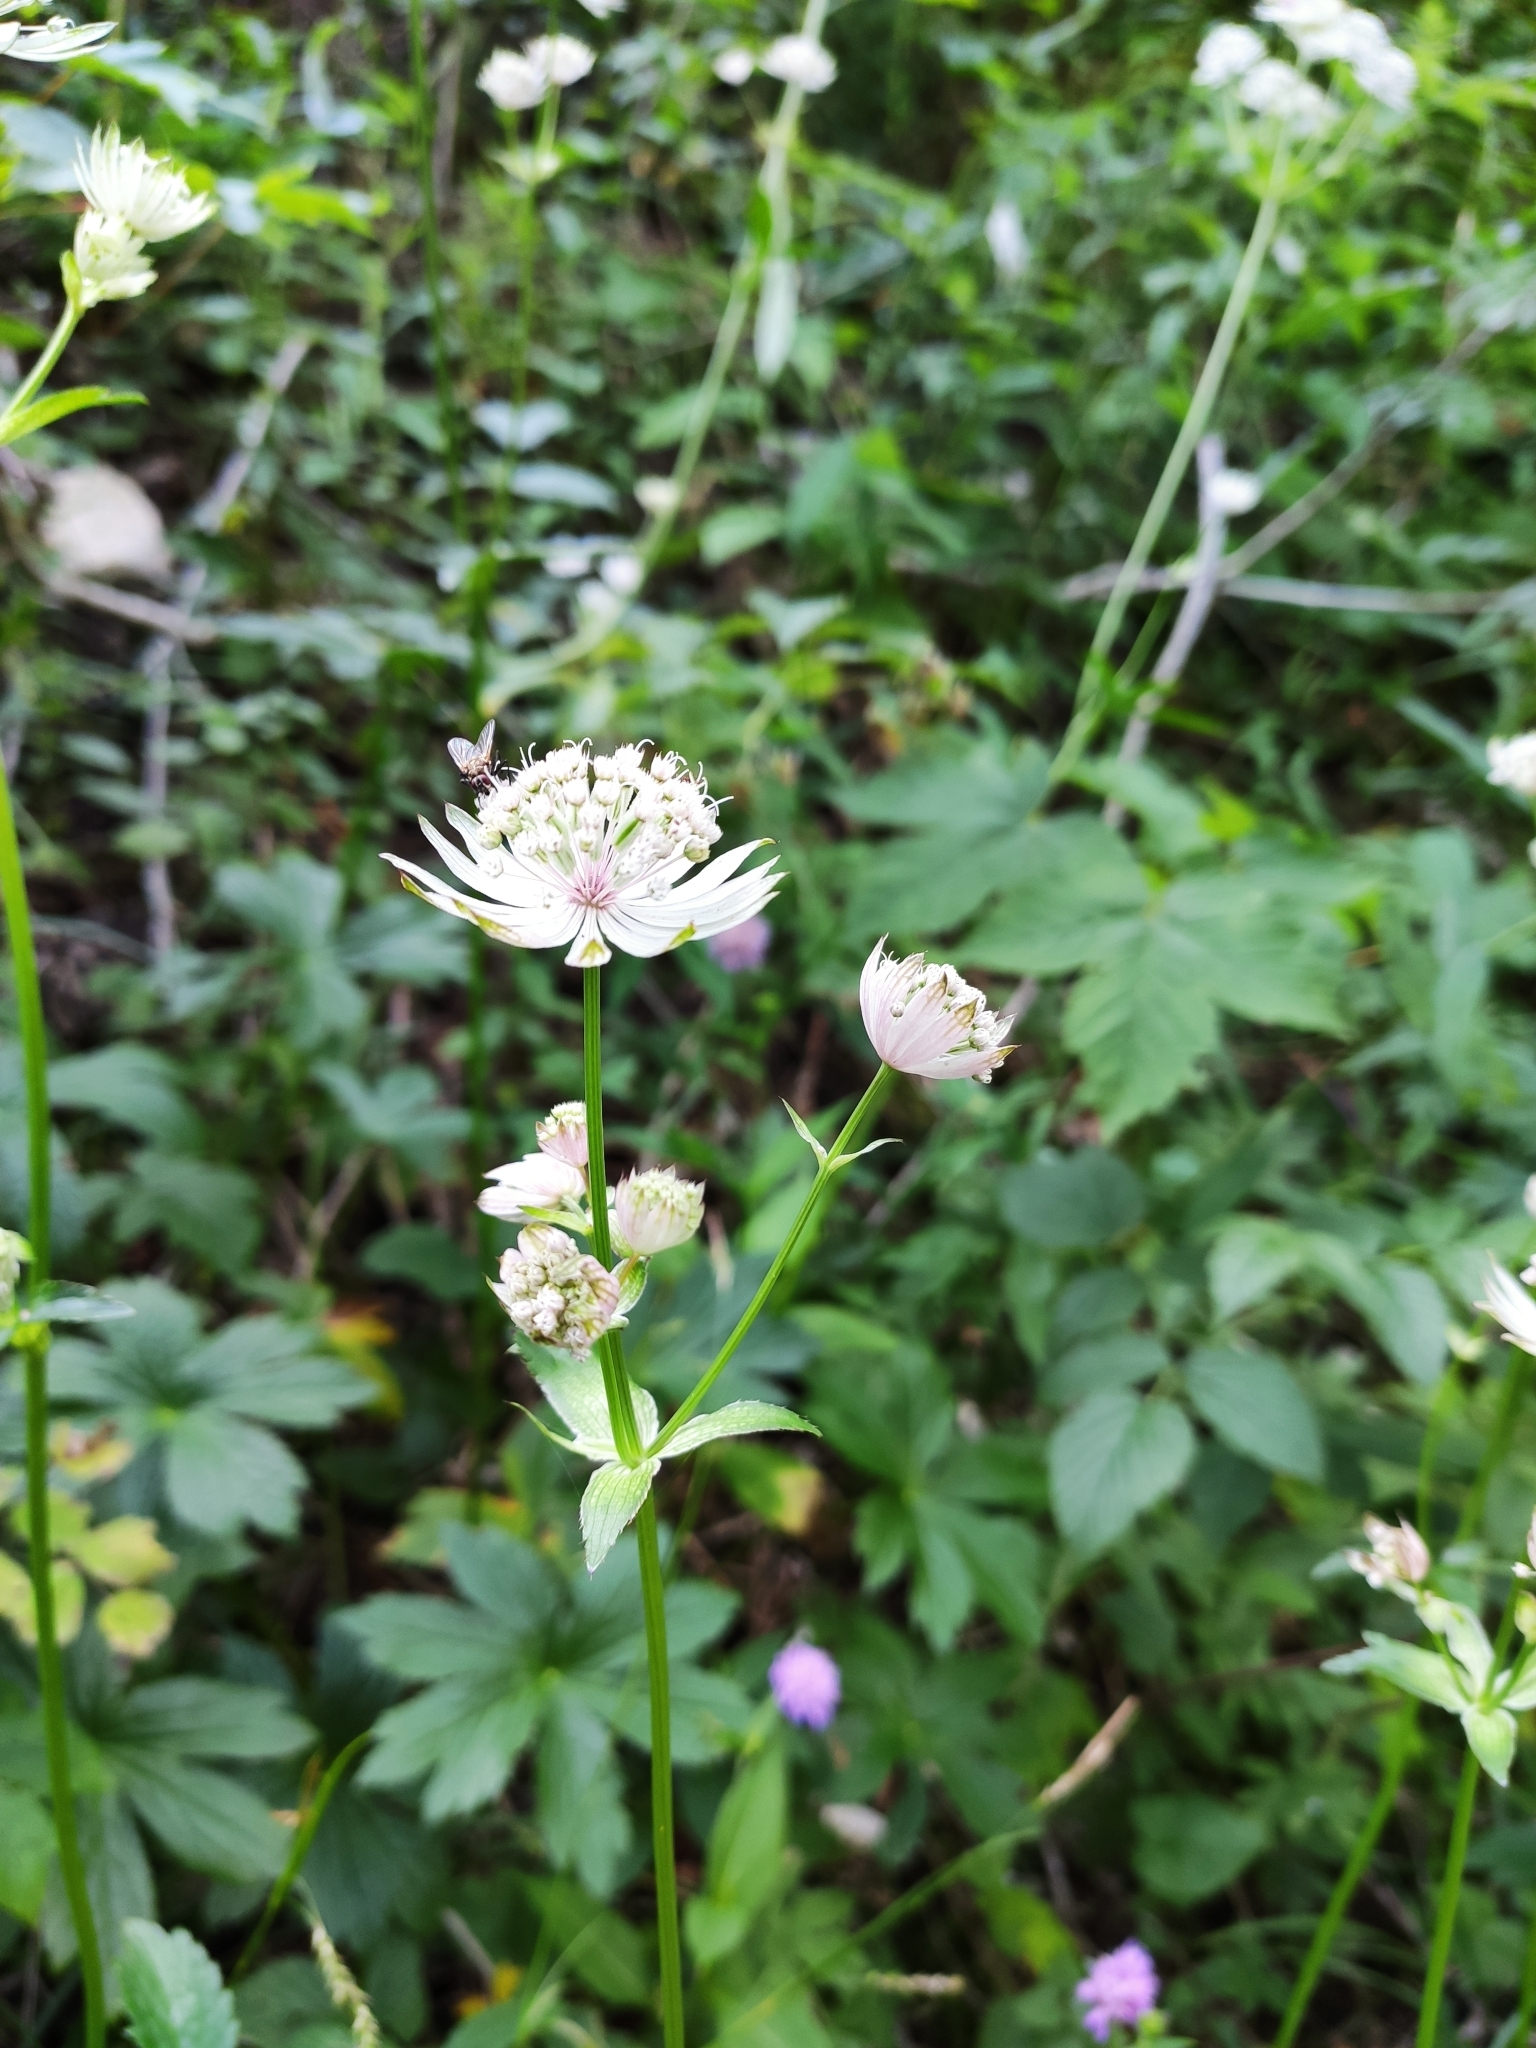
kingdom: Plantae
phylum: Tracheophyta
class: Magnoliopsida
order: Apiales
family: Apiaceae
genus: Astrantia
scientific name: Astrantia major
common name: Greater masterwort
